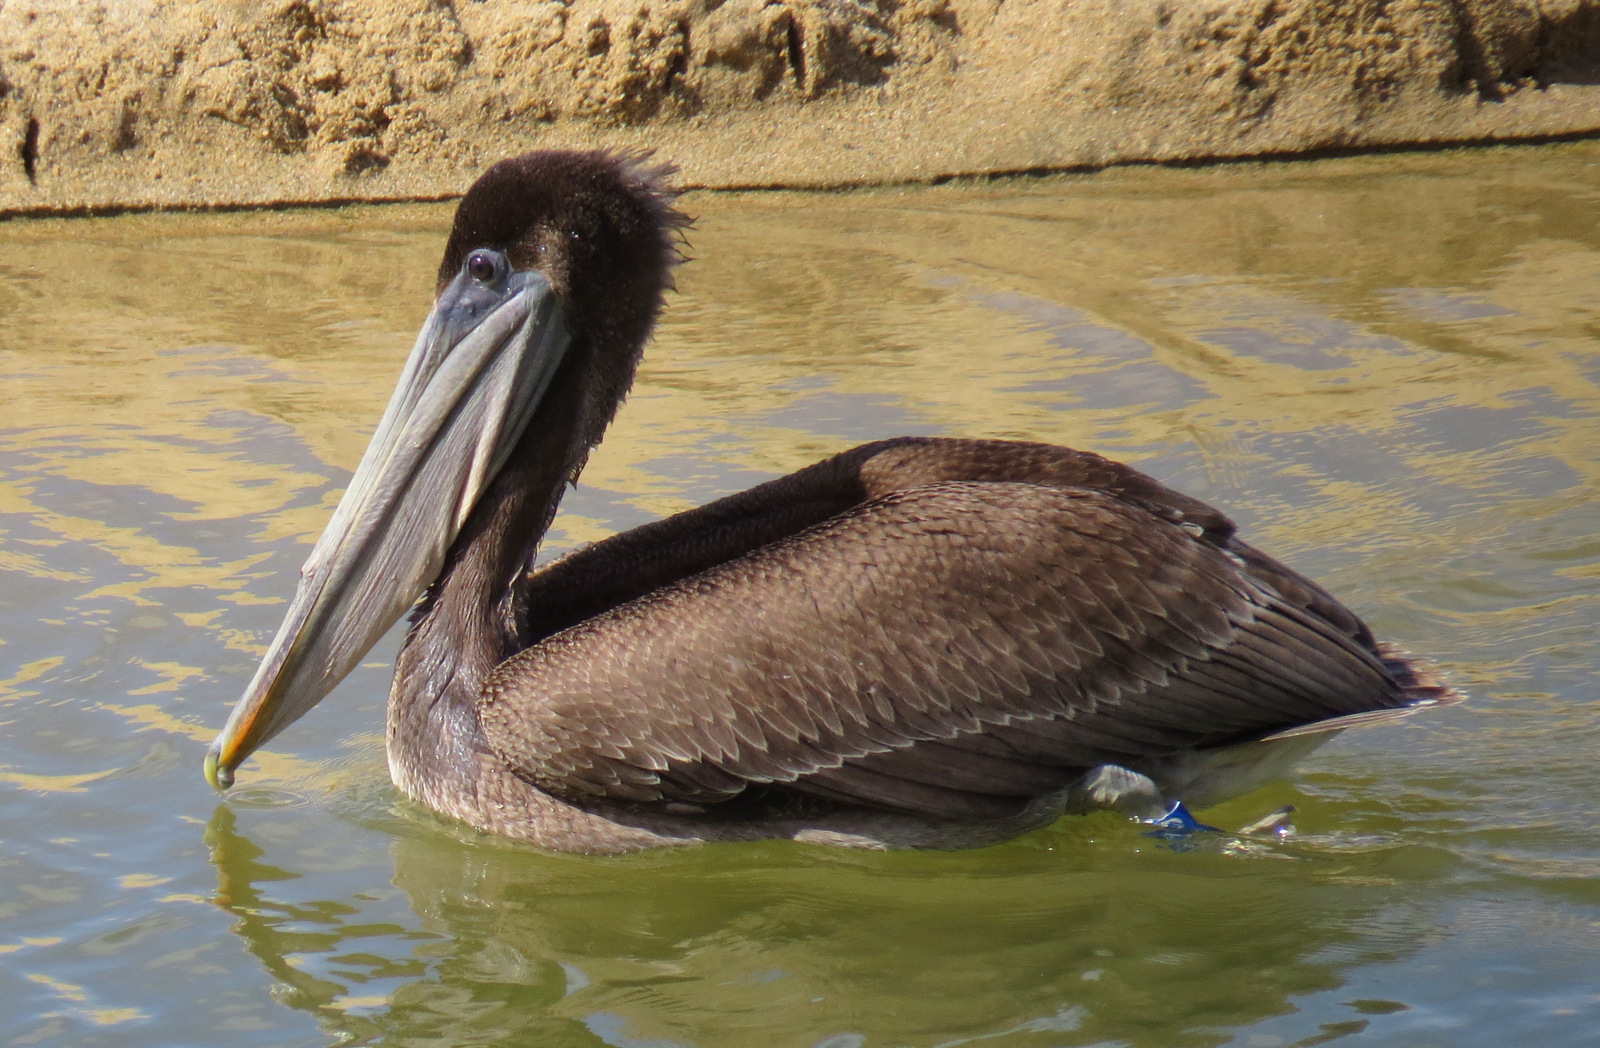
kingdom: Animalia
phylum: Chordata
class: Aves
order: Pelecaniformes
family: Pelecanidae
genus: Pelecanus
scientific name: Pelecanus occidentalis
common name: Brown pelican
